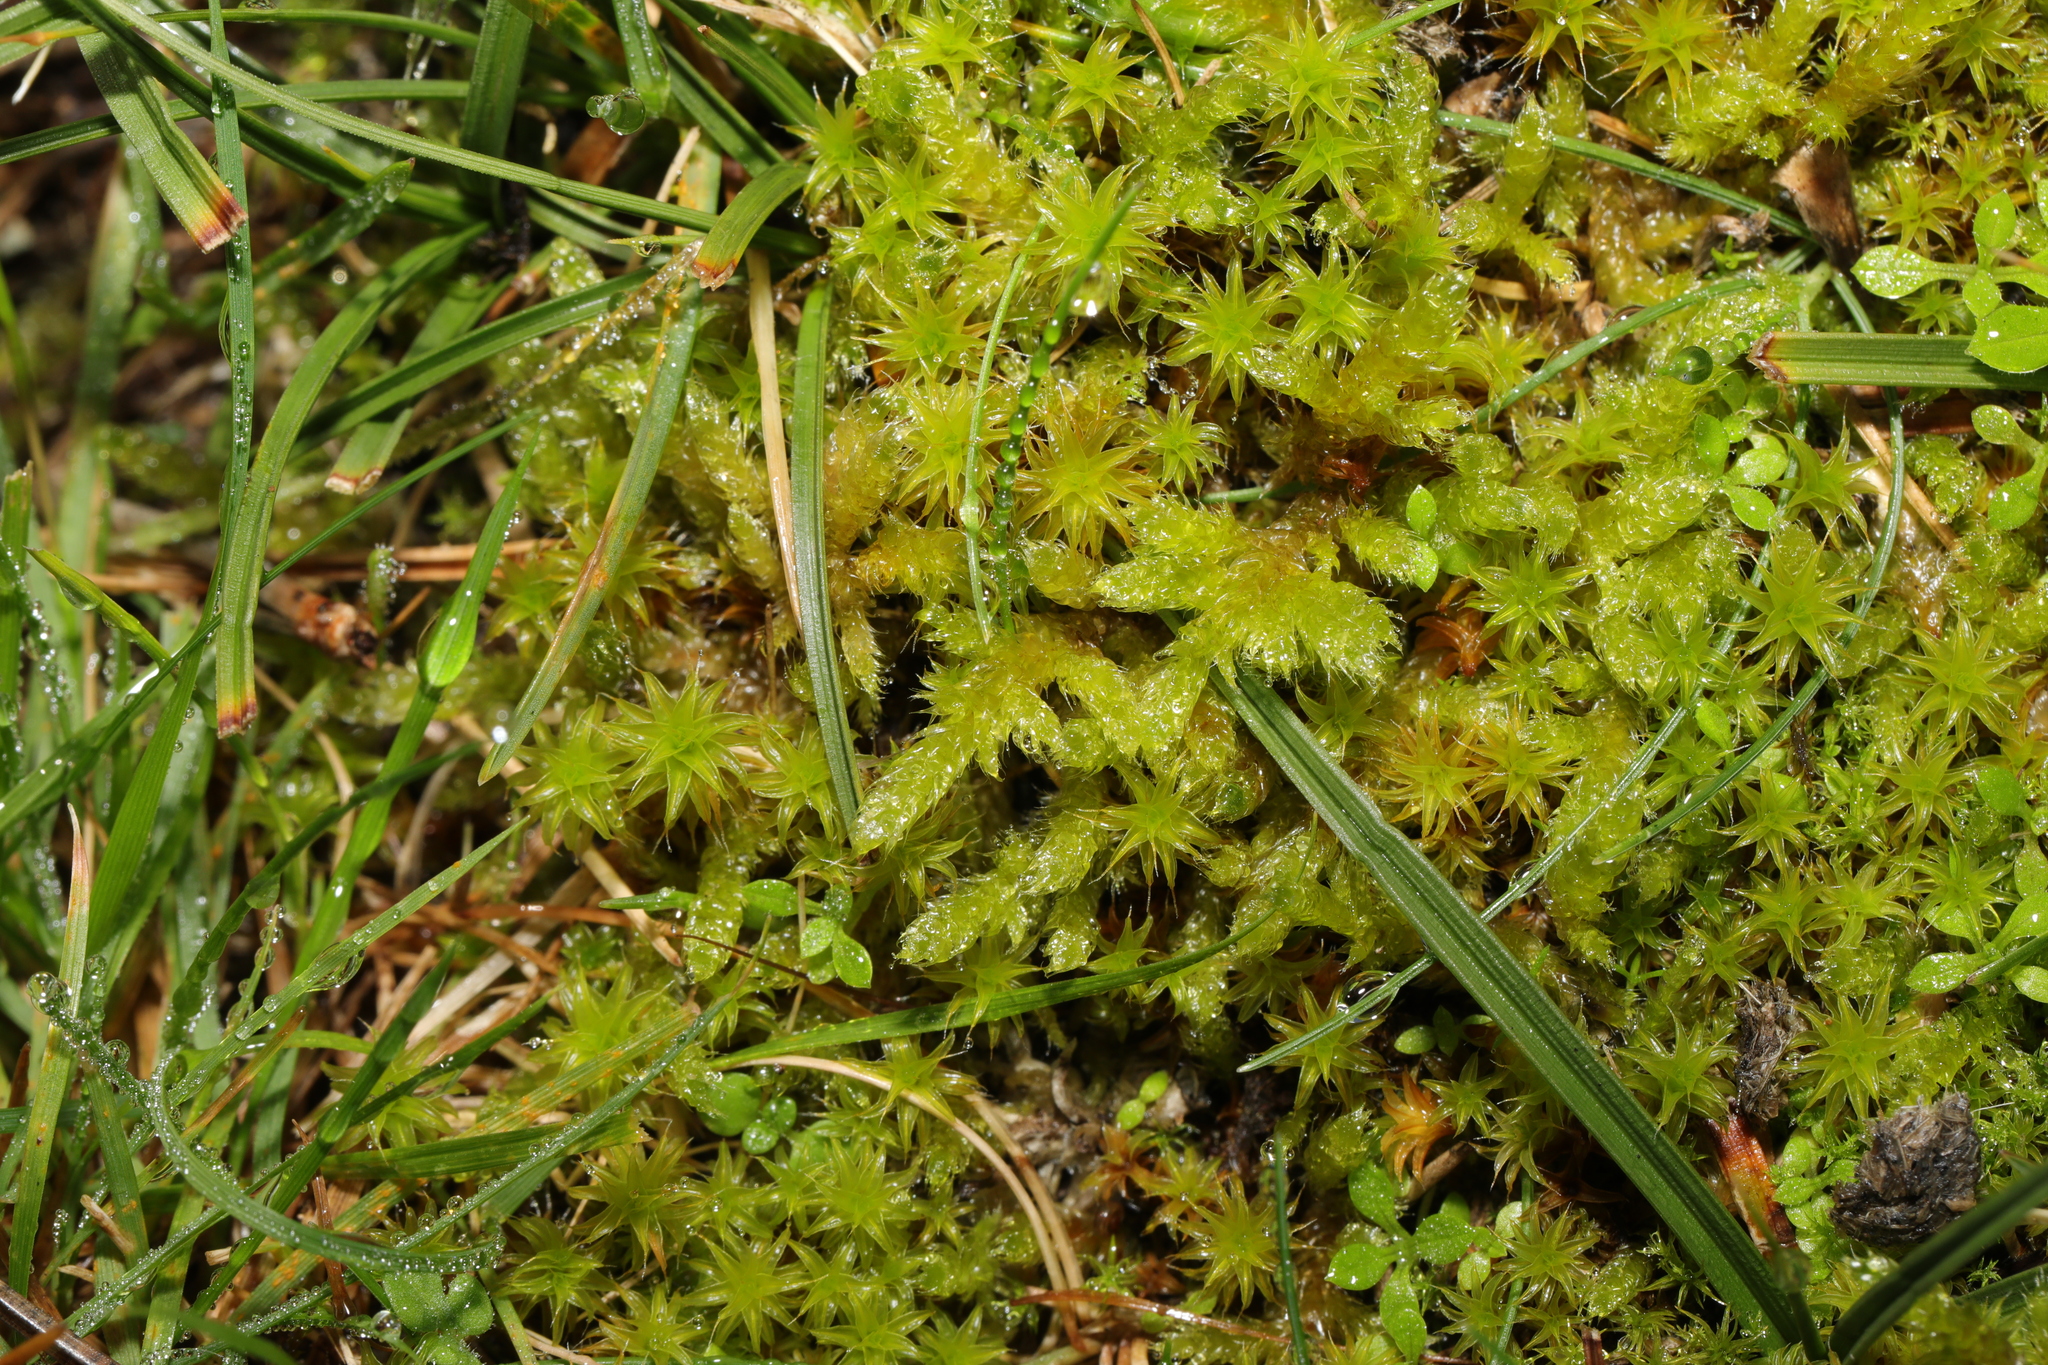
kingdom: Plantae
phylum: Bryophyta
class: Bryopsida
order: Hypnales
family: Hypnaceae
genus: Hypnum
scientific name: Hypnum cupressiforme
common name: Cypress-leaved plait-moss
